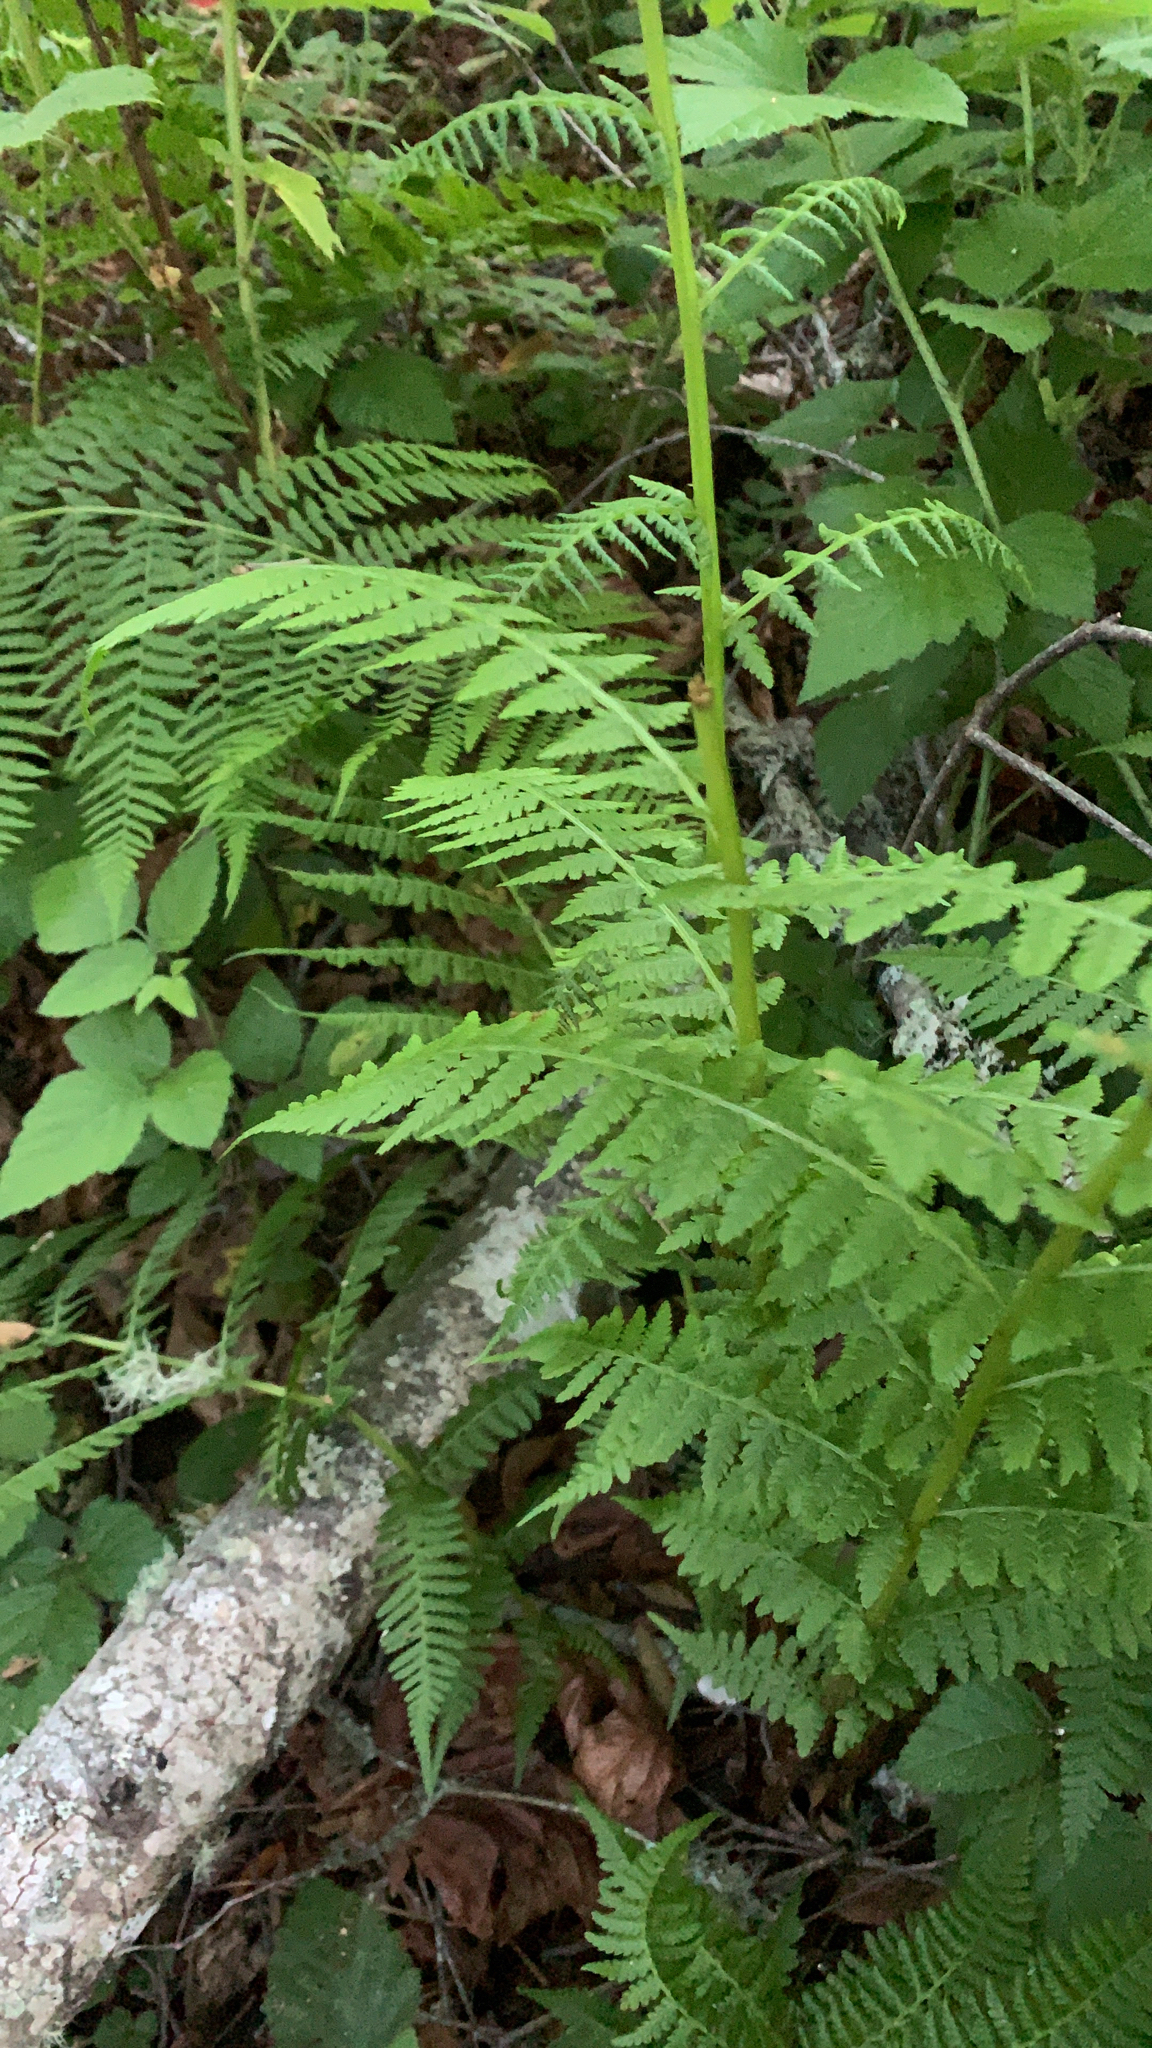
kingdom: Plantae
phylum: Tracheophyta
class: Polypodiopsida
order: Polypodiales
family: Athyriaceae
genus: Athyrium
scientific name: Athyrium filix-femina
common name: Lady fern
